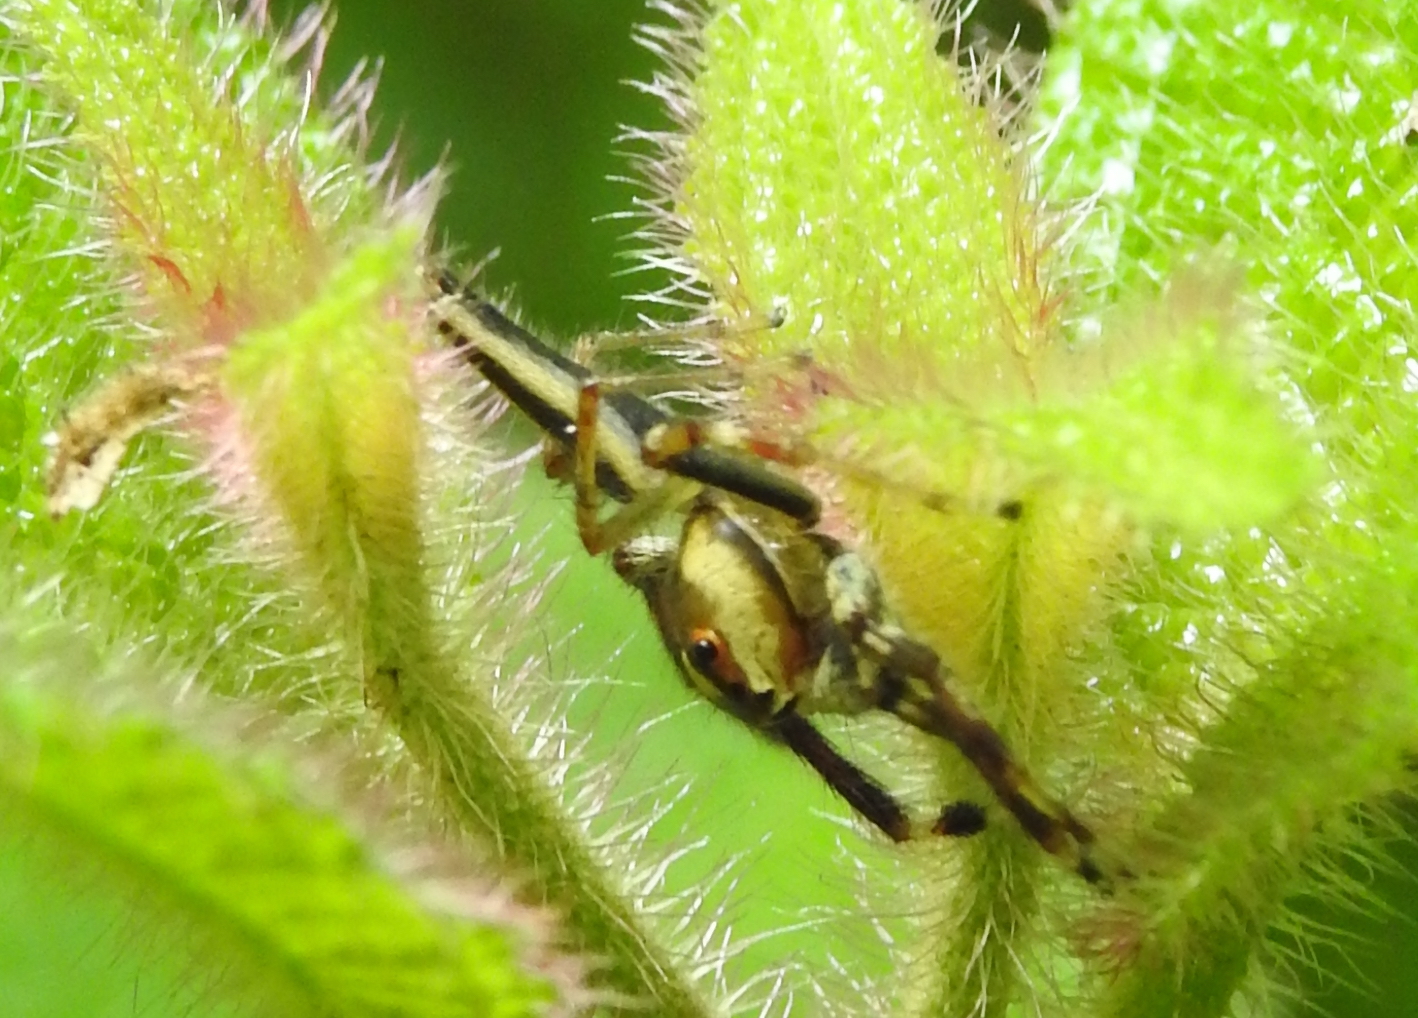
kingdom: Animalia
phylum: Arthropoda
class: Arachnida
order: Araneae
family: Salticidae
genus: Telamonia
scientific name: Telamonia festiva
